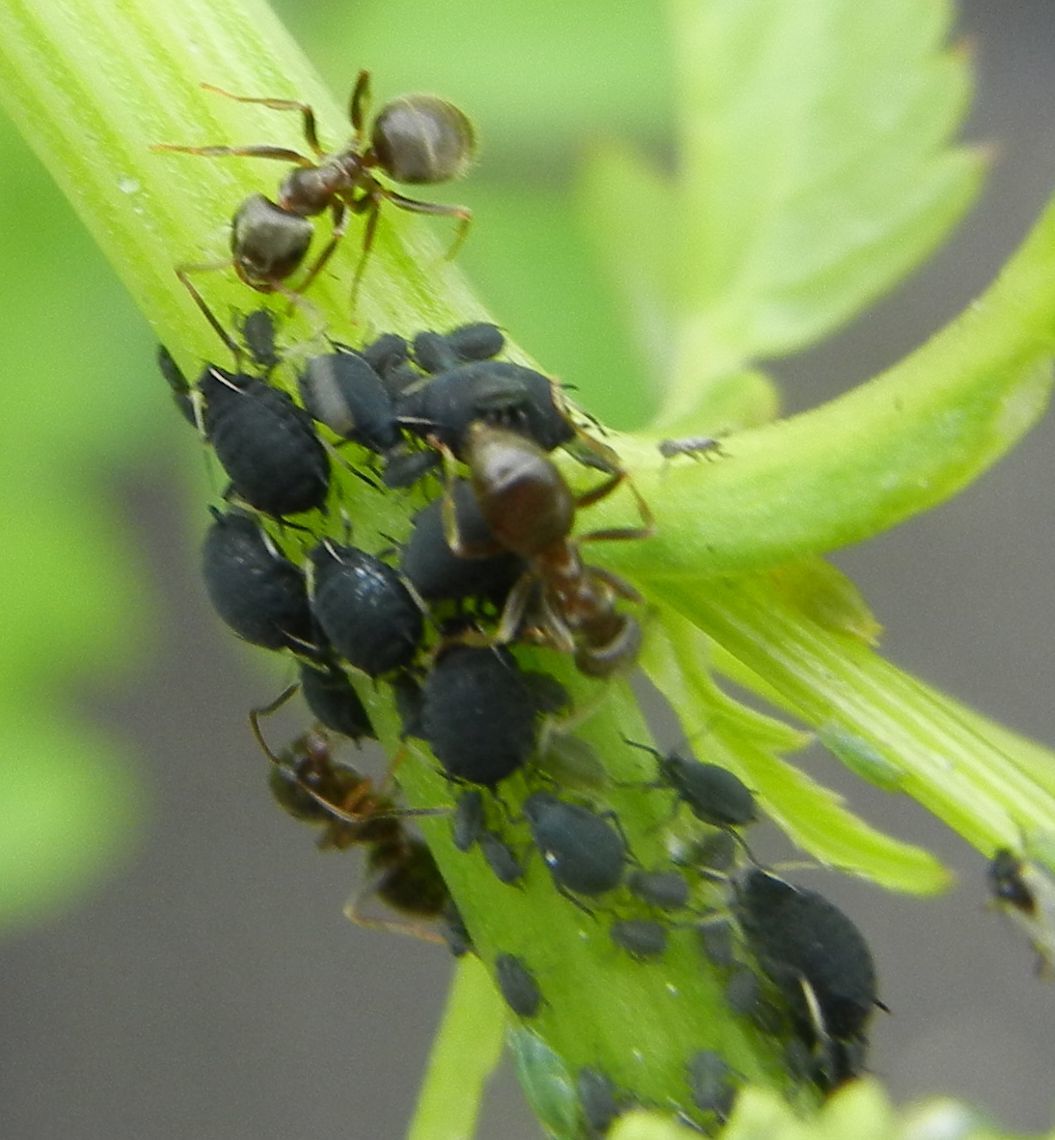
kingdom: Animalia
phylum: Arthropoda
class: Insecta
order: Hymenoptera
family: Formicidae
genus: Lasius
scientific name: Lasius niger
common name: Small black ant
